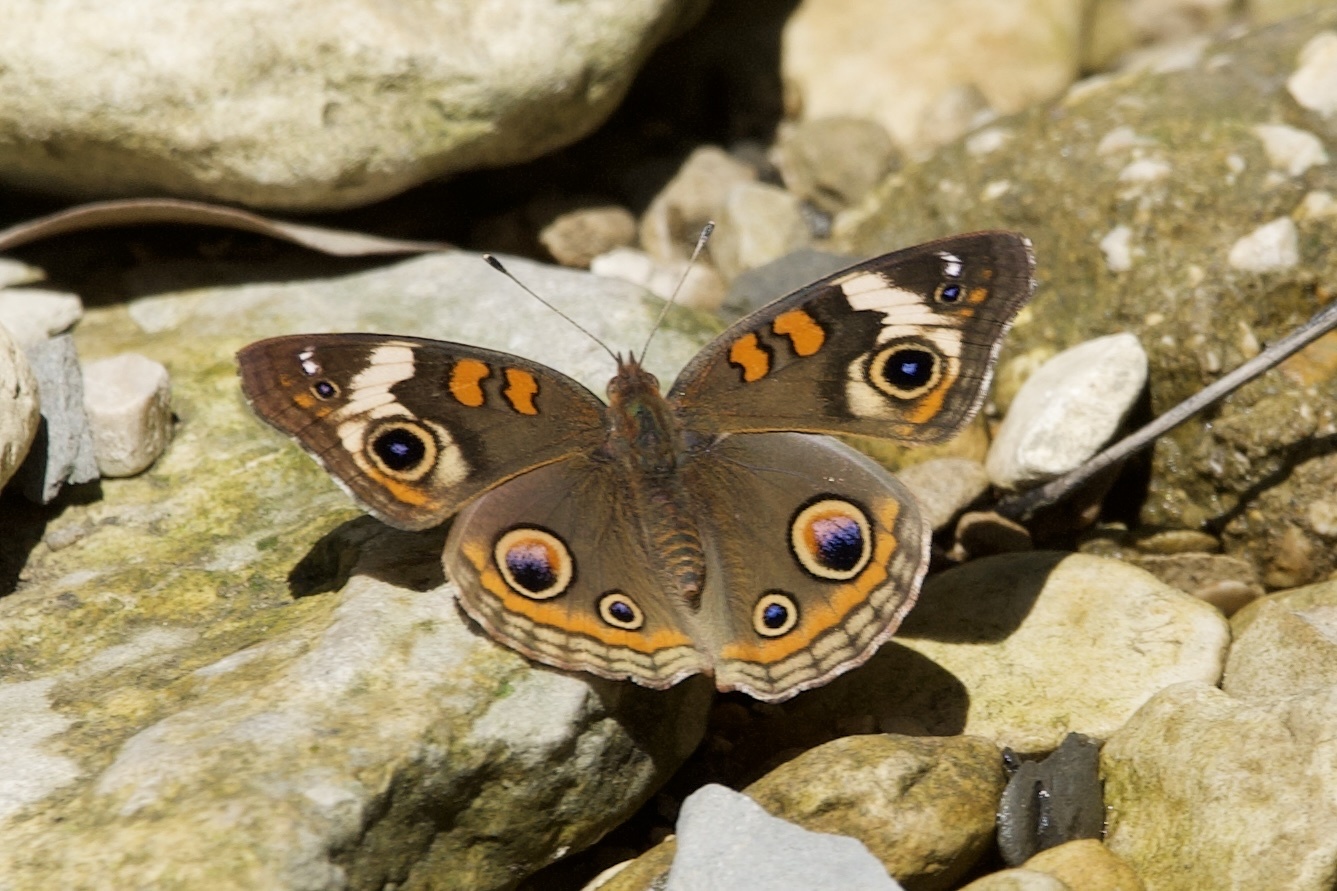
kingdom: Animalia
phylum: Arthropoda
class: Insecta
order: Lepidoptera
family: Nymphalidae
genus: Junonia
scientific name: Junonia coenia
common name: Common buckeye
